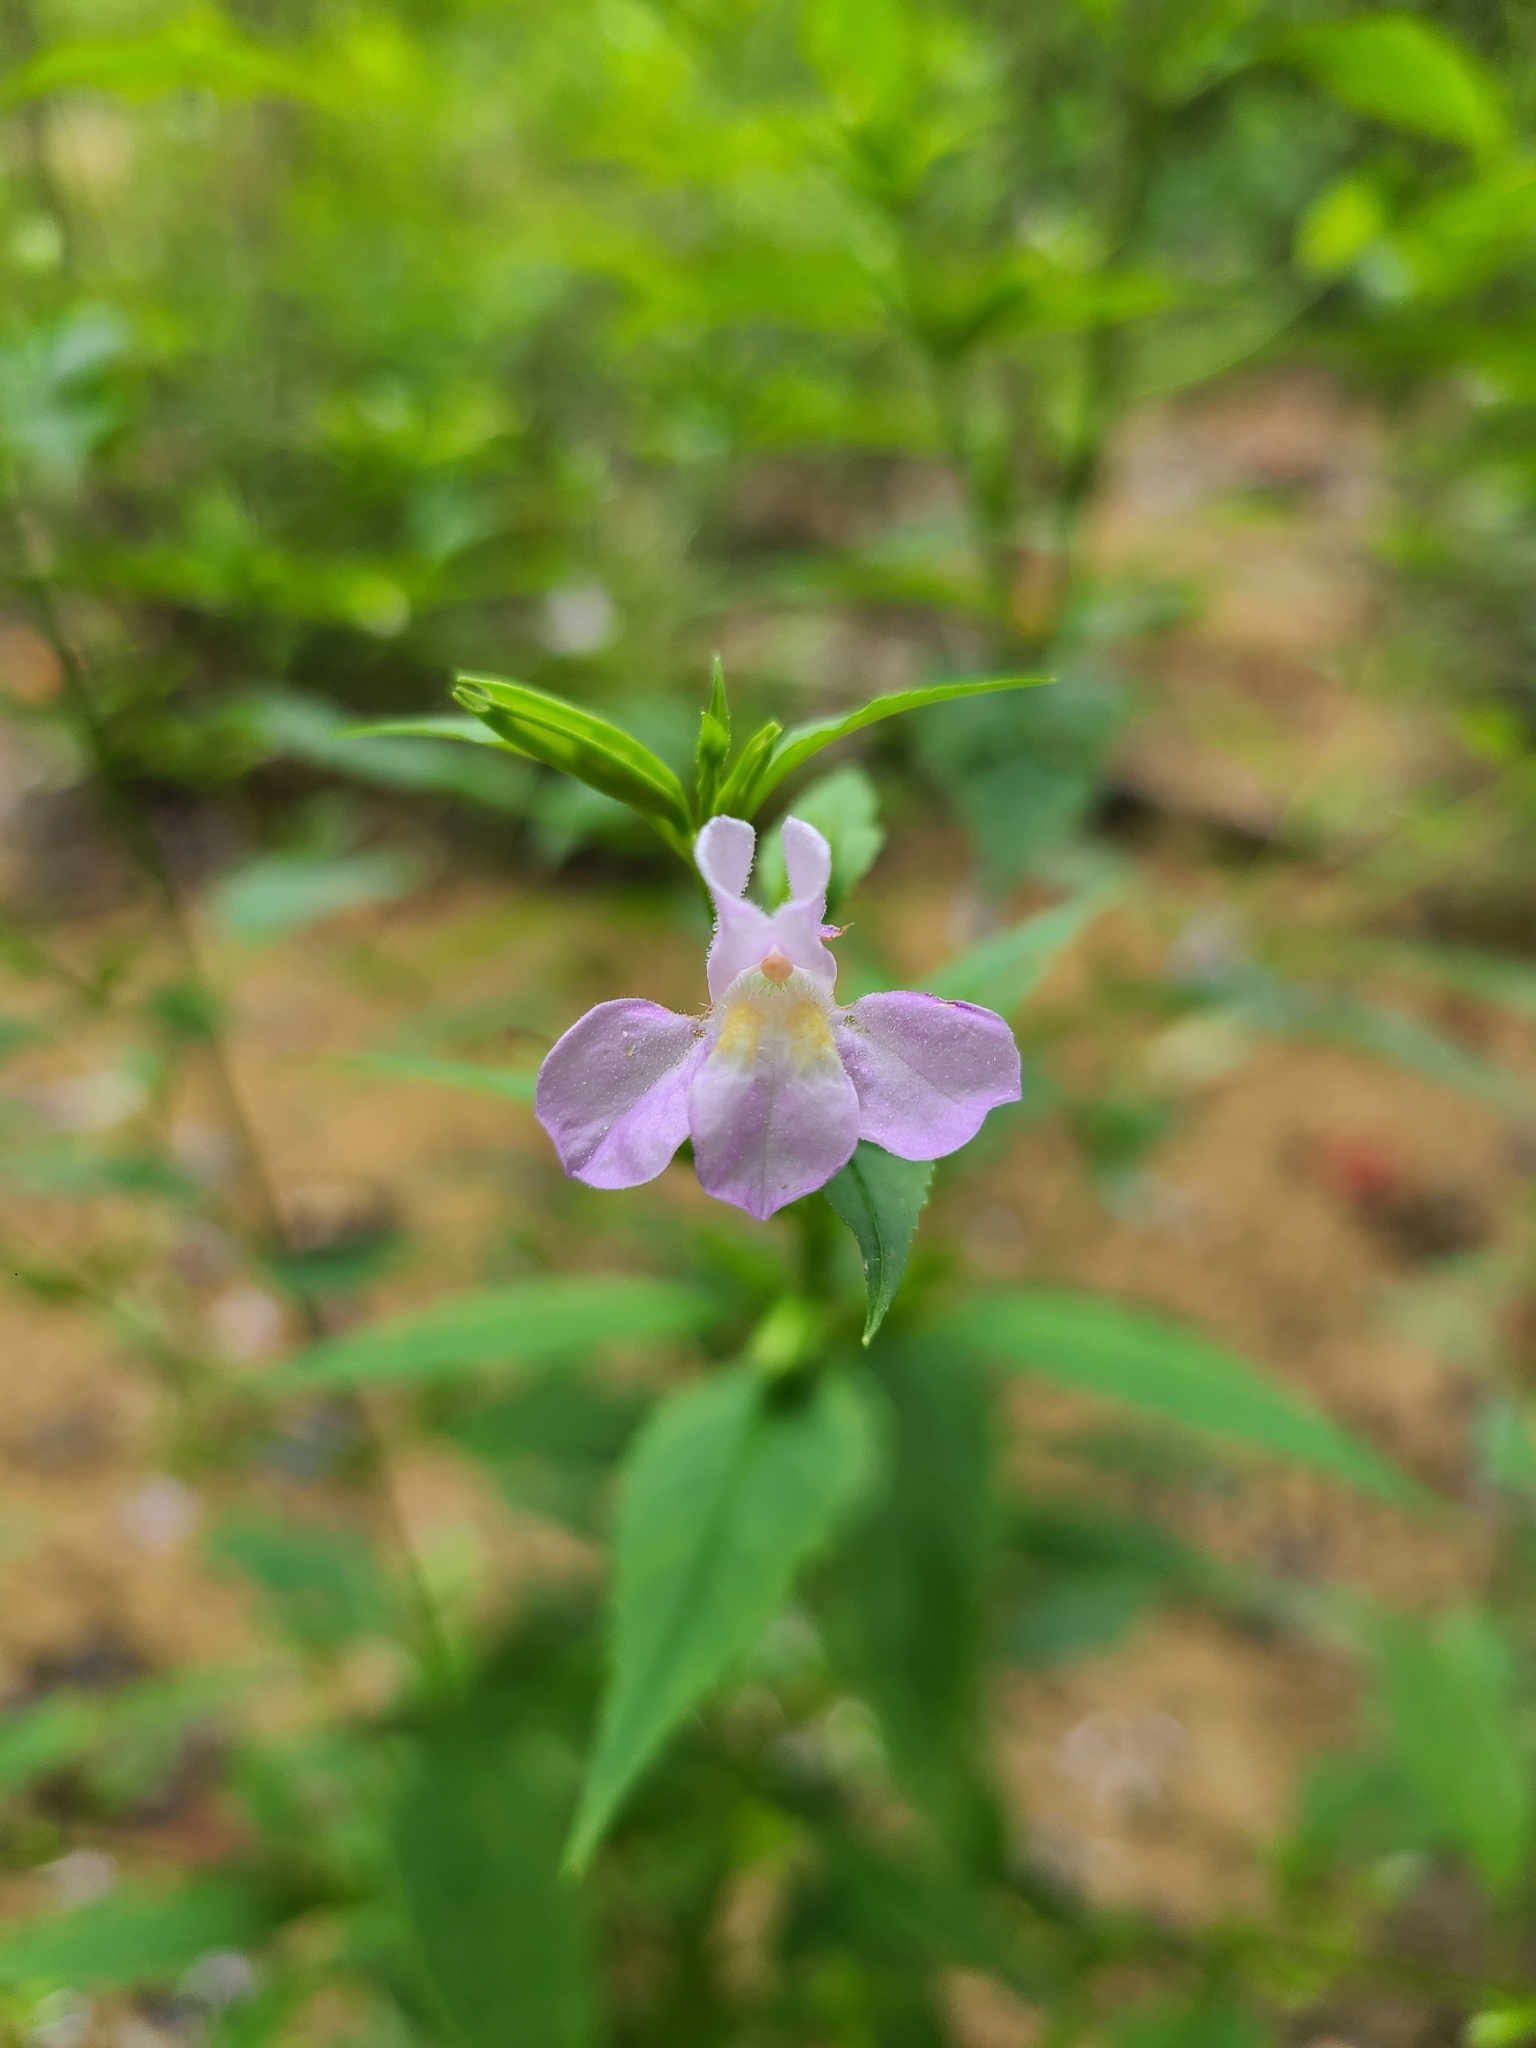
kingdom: Plantae
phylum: Tracheophyta
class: Magnoliopsida
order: Lamiales
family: Phrymaceae
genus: Mimulus
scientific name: Mimulus alatus
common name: Sharp-wing monkey-flower
